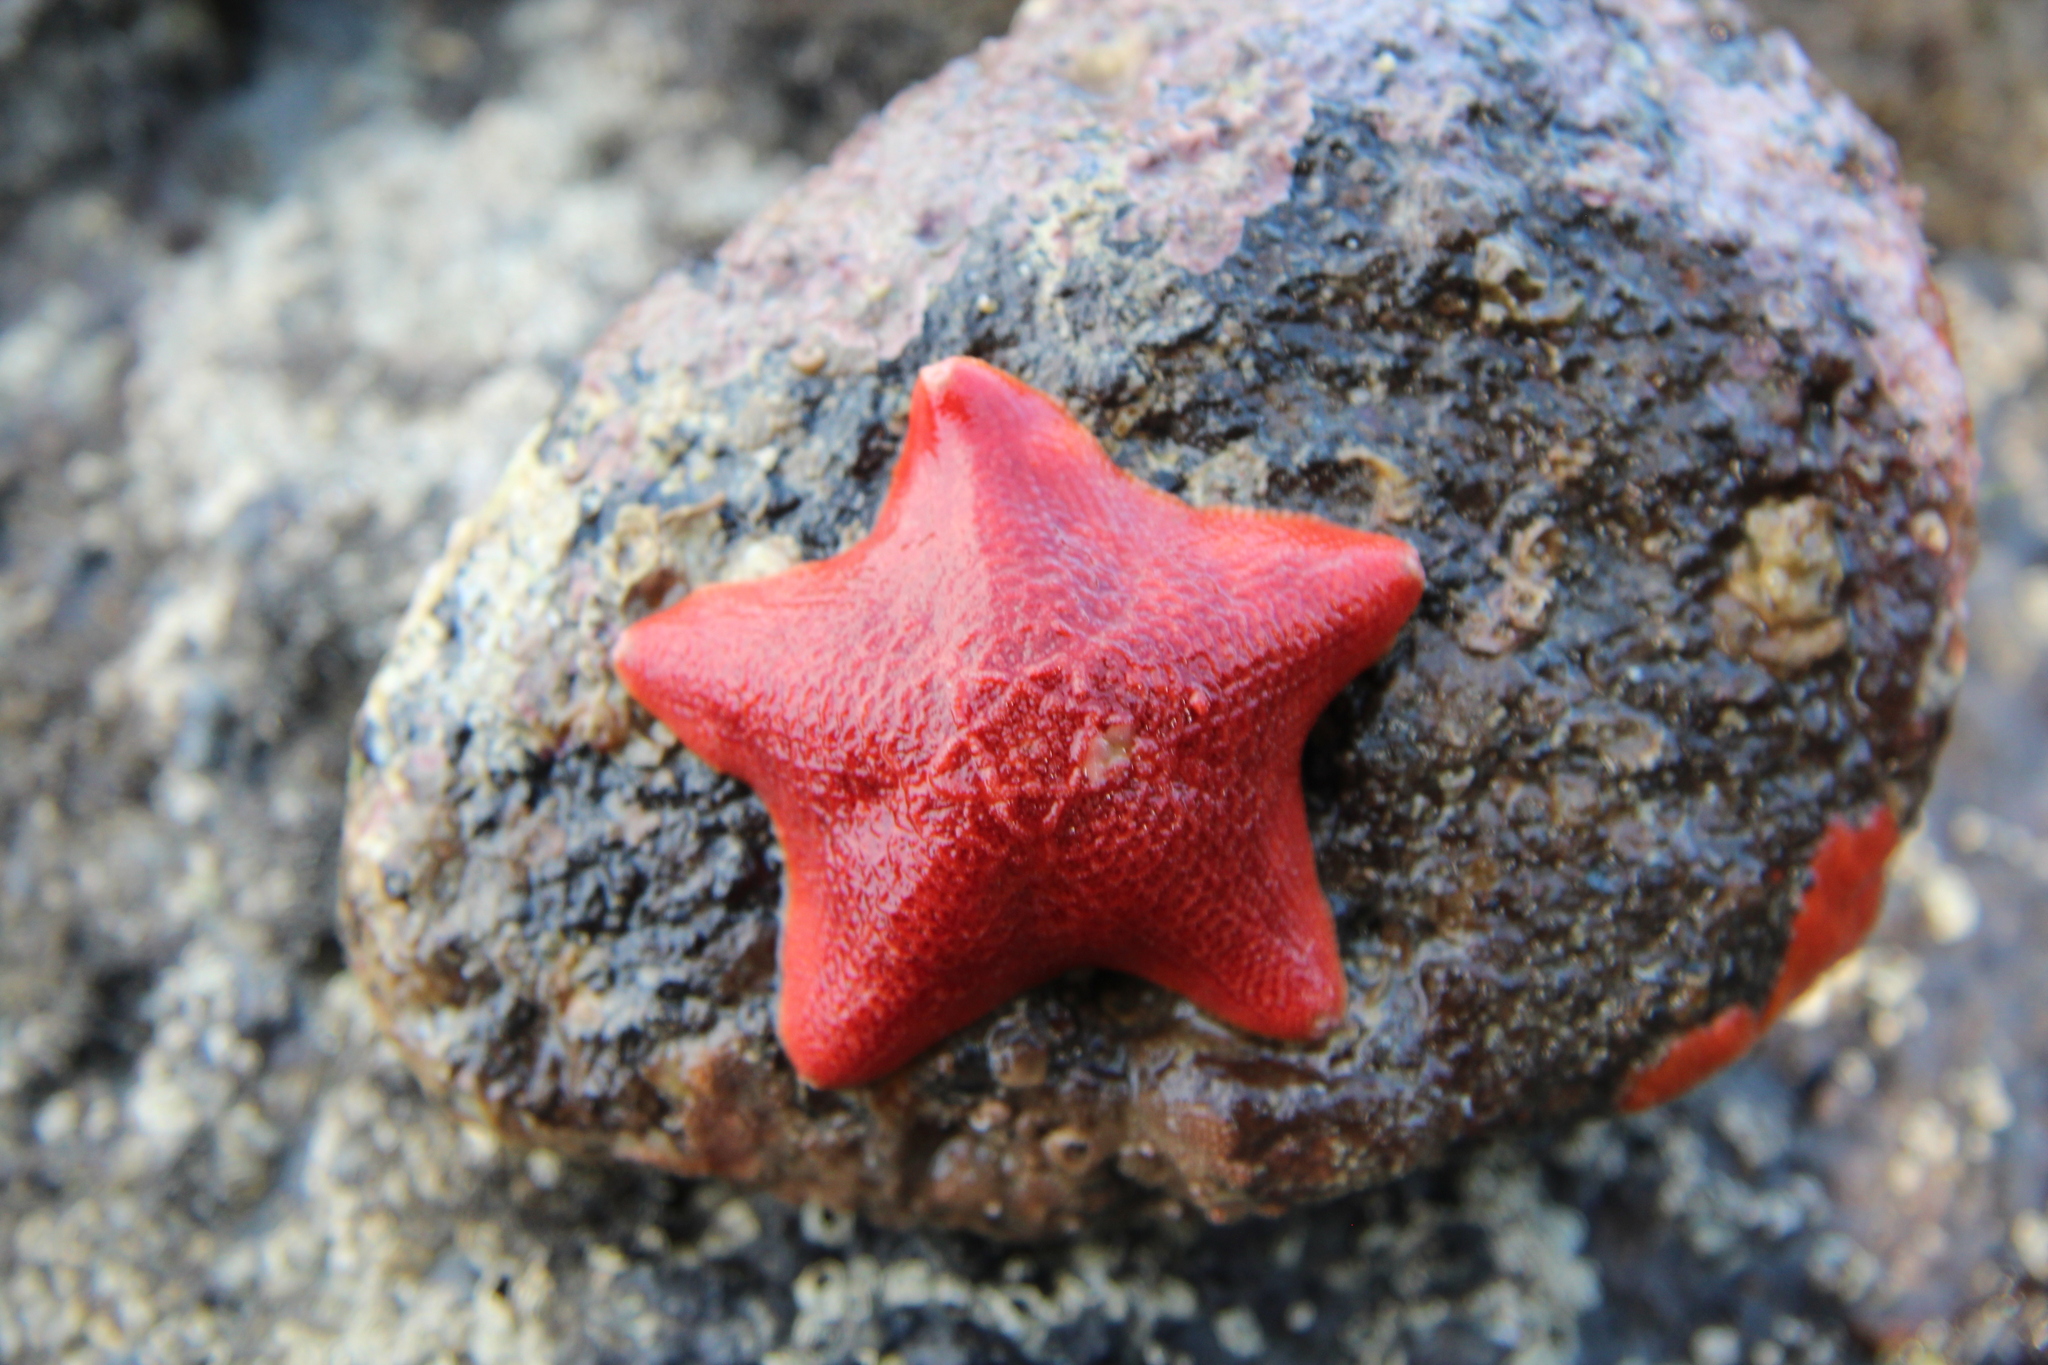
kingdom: Animalia
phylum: Echinodermata
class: Asteroidea
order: Valvatida
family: Asterinidae
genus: Patiriella
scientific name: Patiriella regularis
